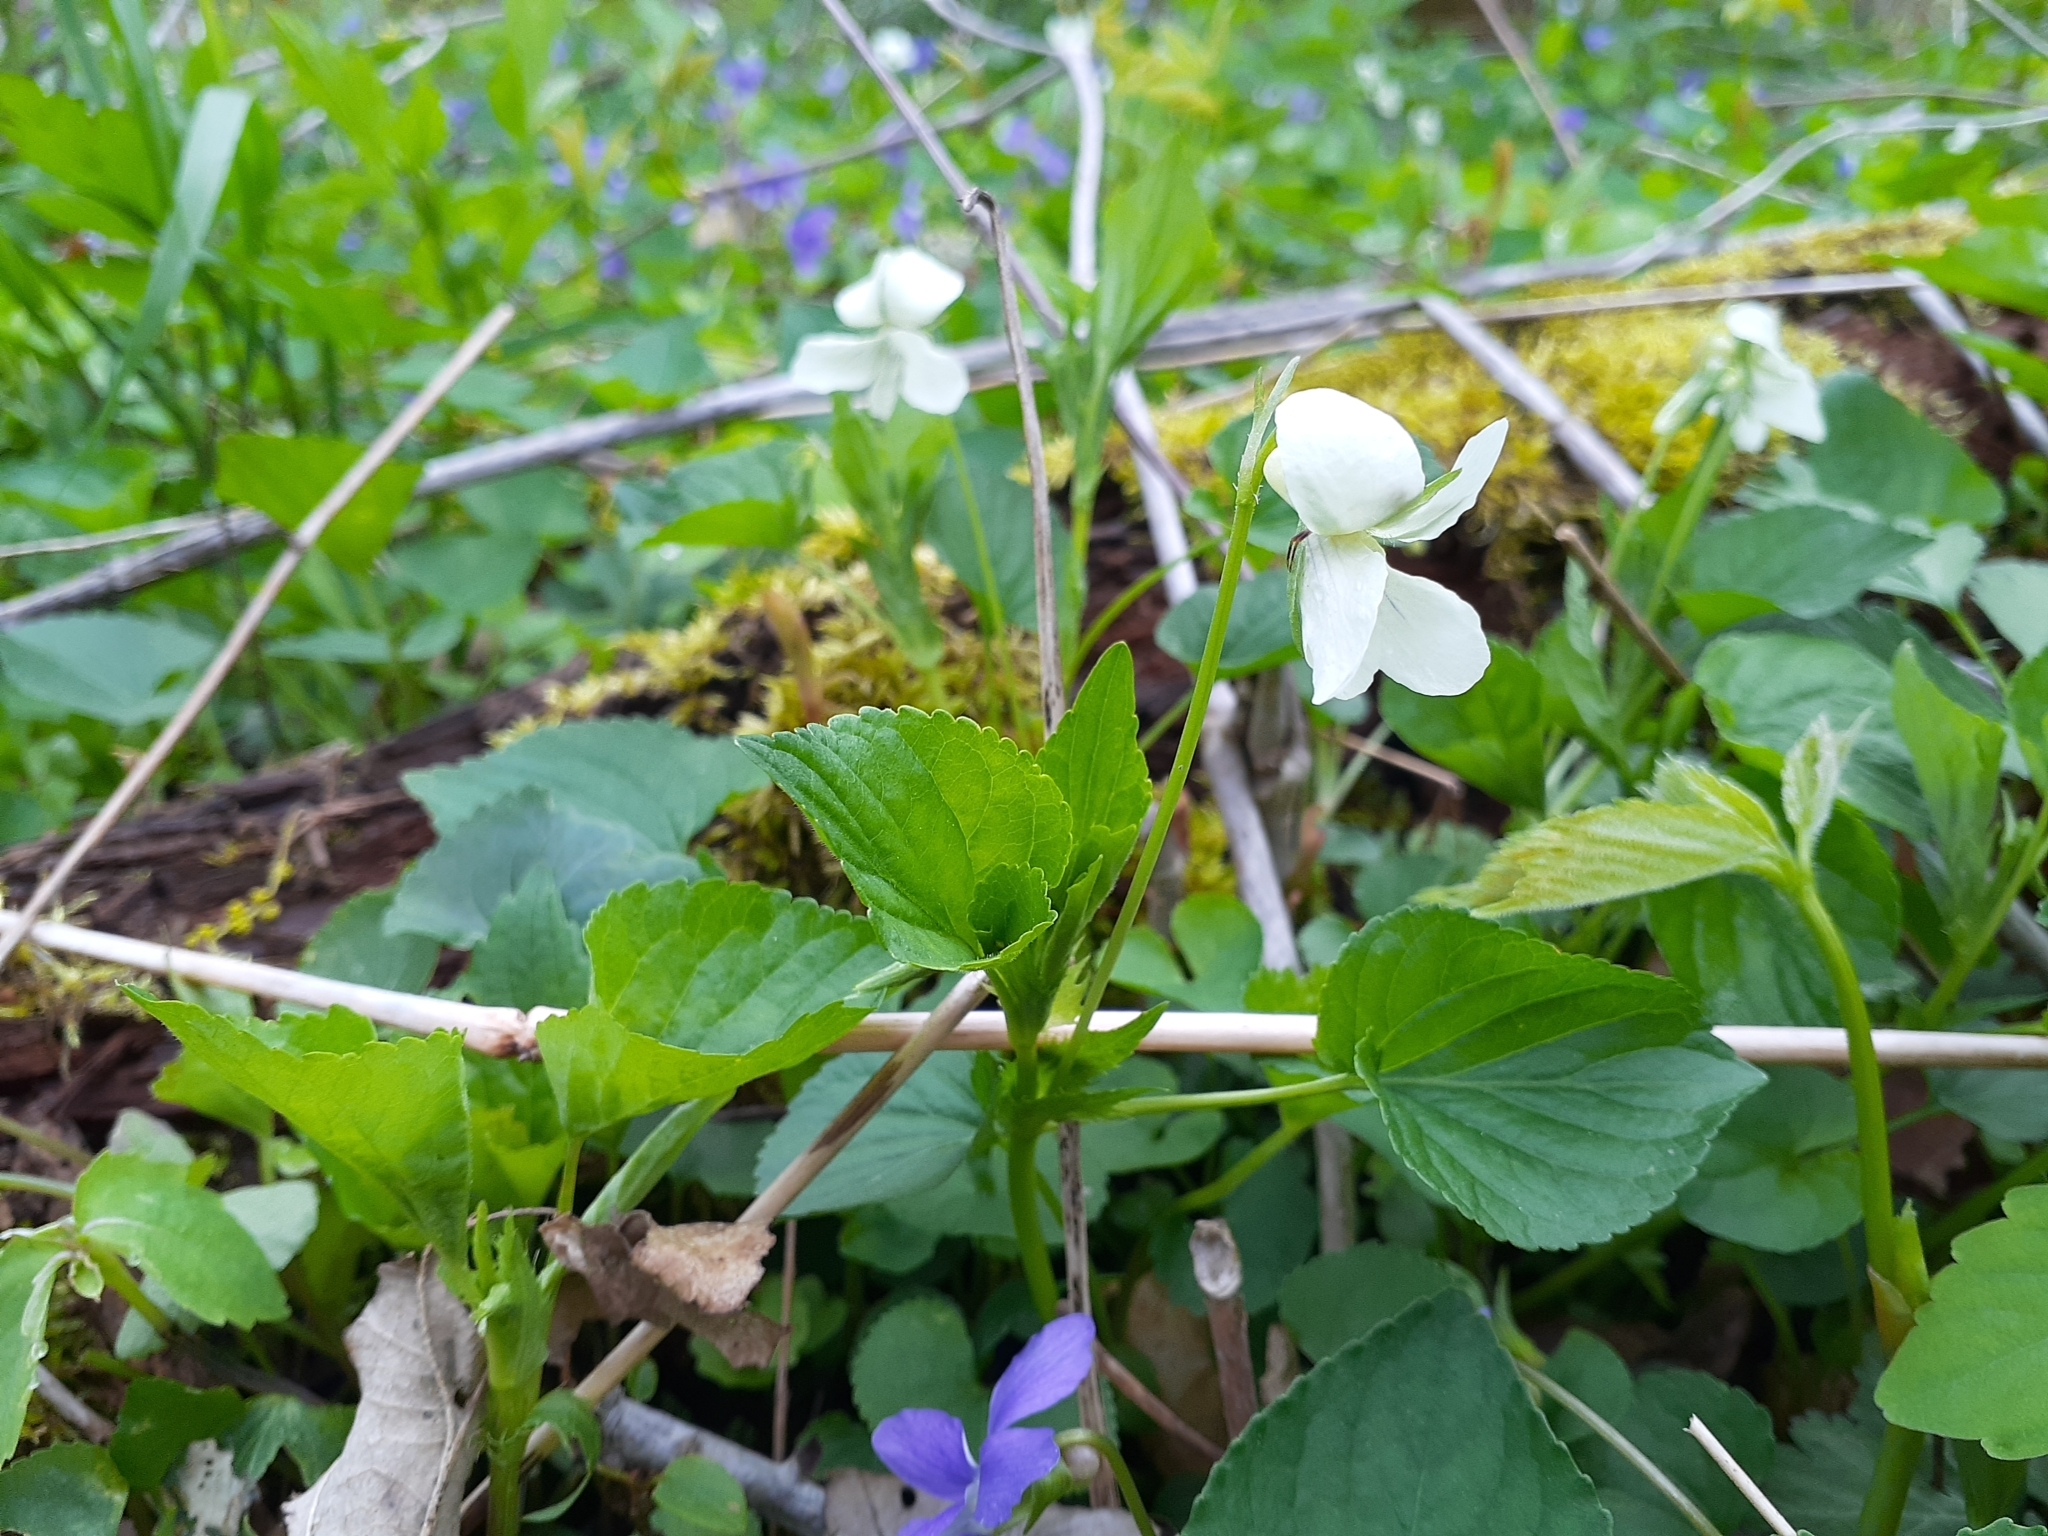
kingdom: Plantae
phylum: Tracheophyta
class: Magnoliopsida
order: Malpighiales
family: Violaceae
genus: Viola
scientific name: Viola striata
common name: Cream violet
